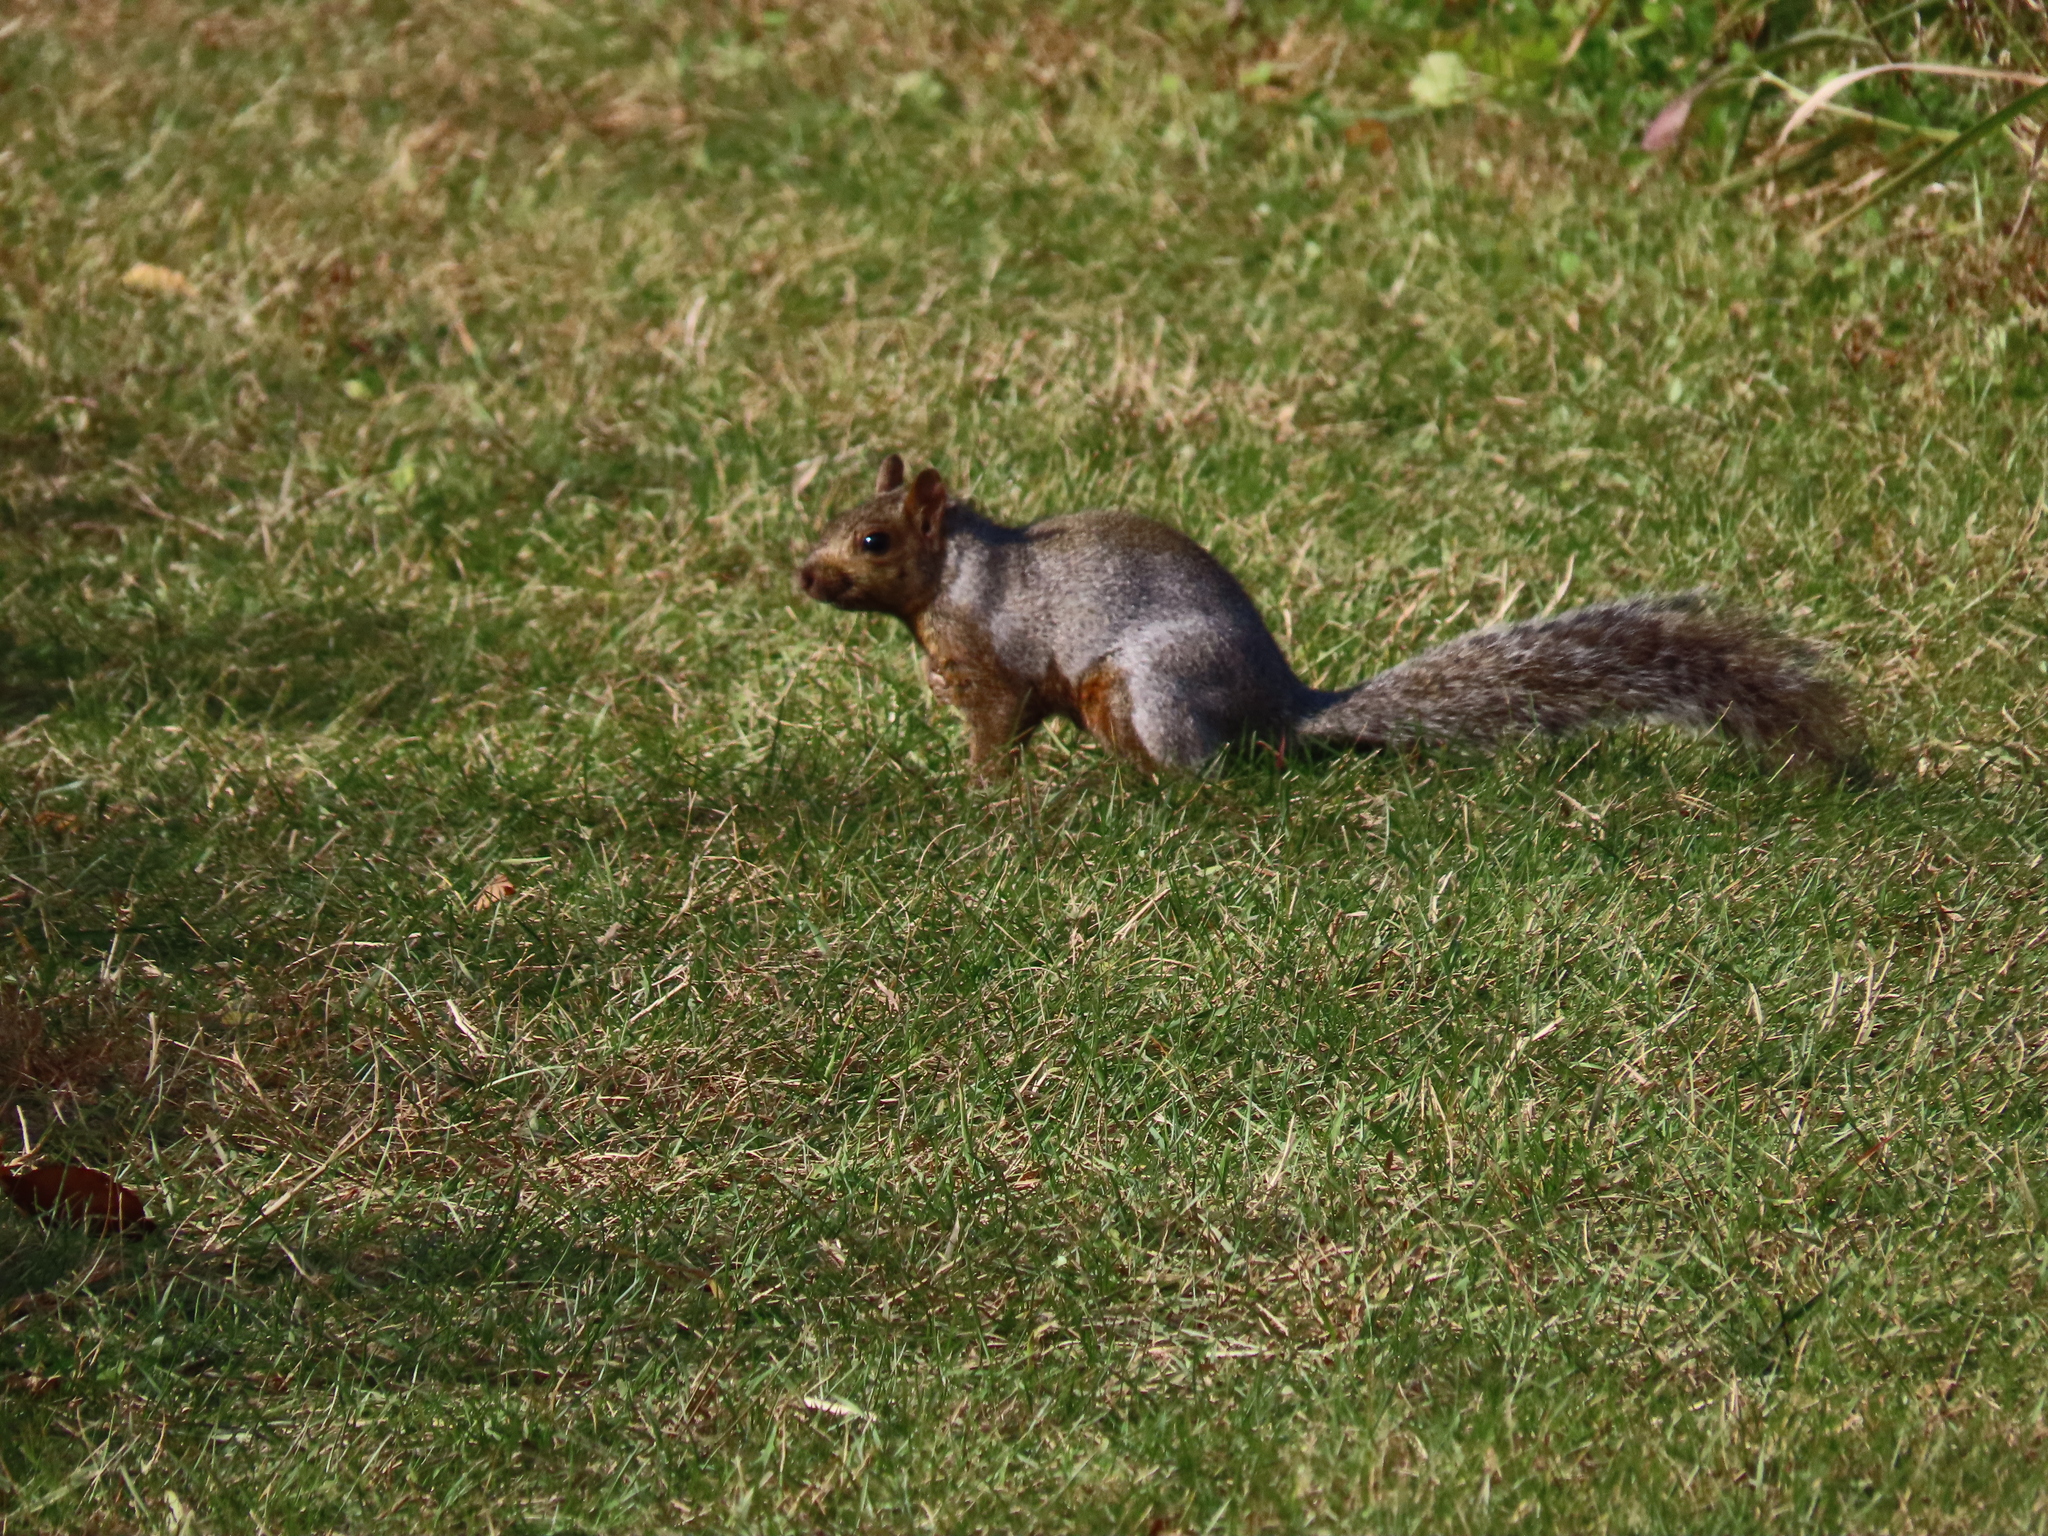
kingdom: Animalia
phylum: Chordata
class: Mammalia
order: Rodentia
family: Sciuridae
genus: Sciurus
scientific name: Sciurus carolinensis
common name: Eastern gray squirrel
